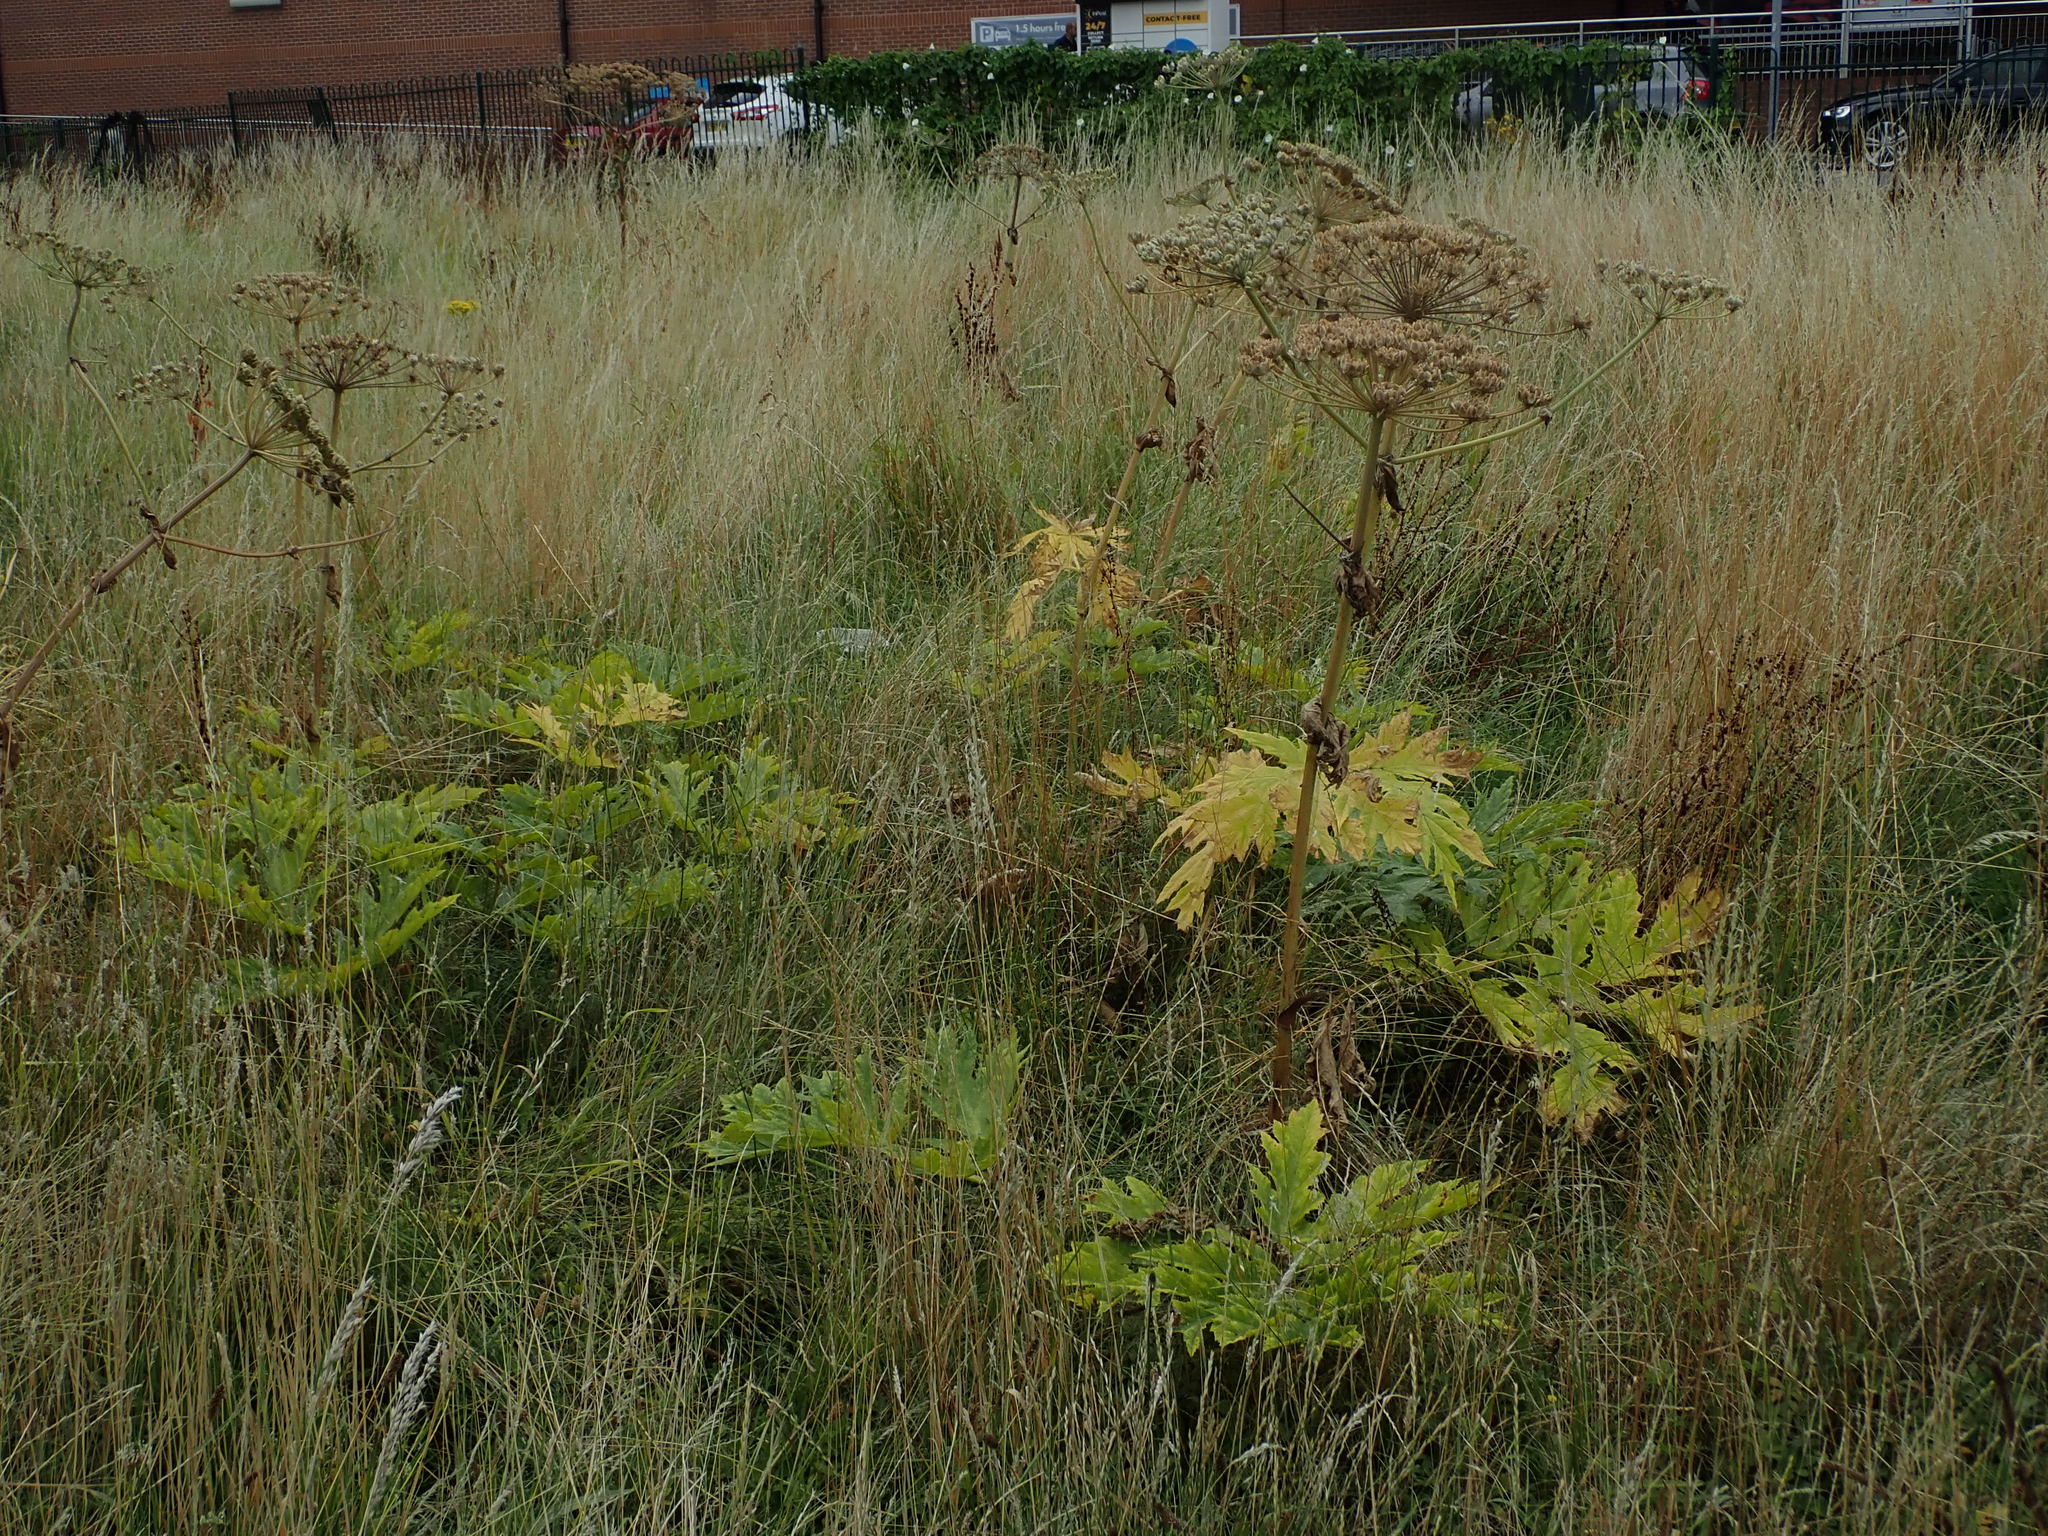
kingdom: Plantae
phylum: Tracheophyta
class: Magnoliopsida
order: Apiales
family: Apiaceae
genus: Heracleum
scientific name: Heracleum mantegazzianum
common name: Giant hogweed
